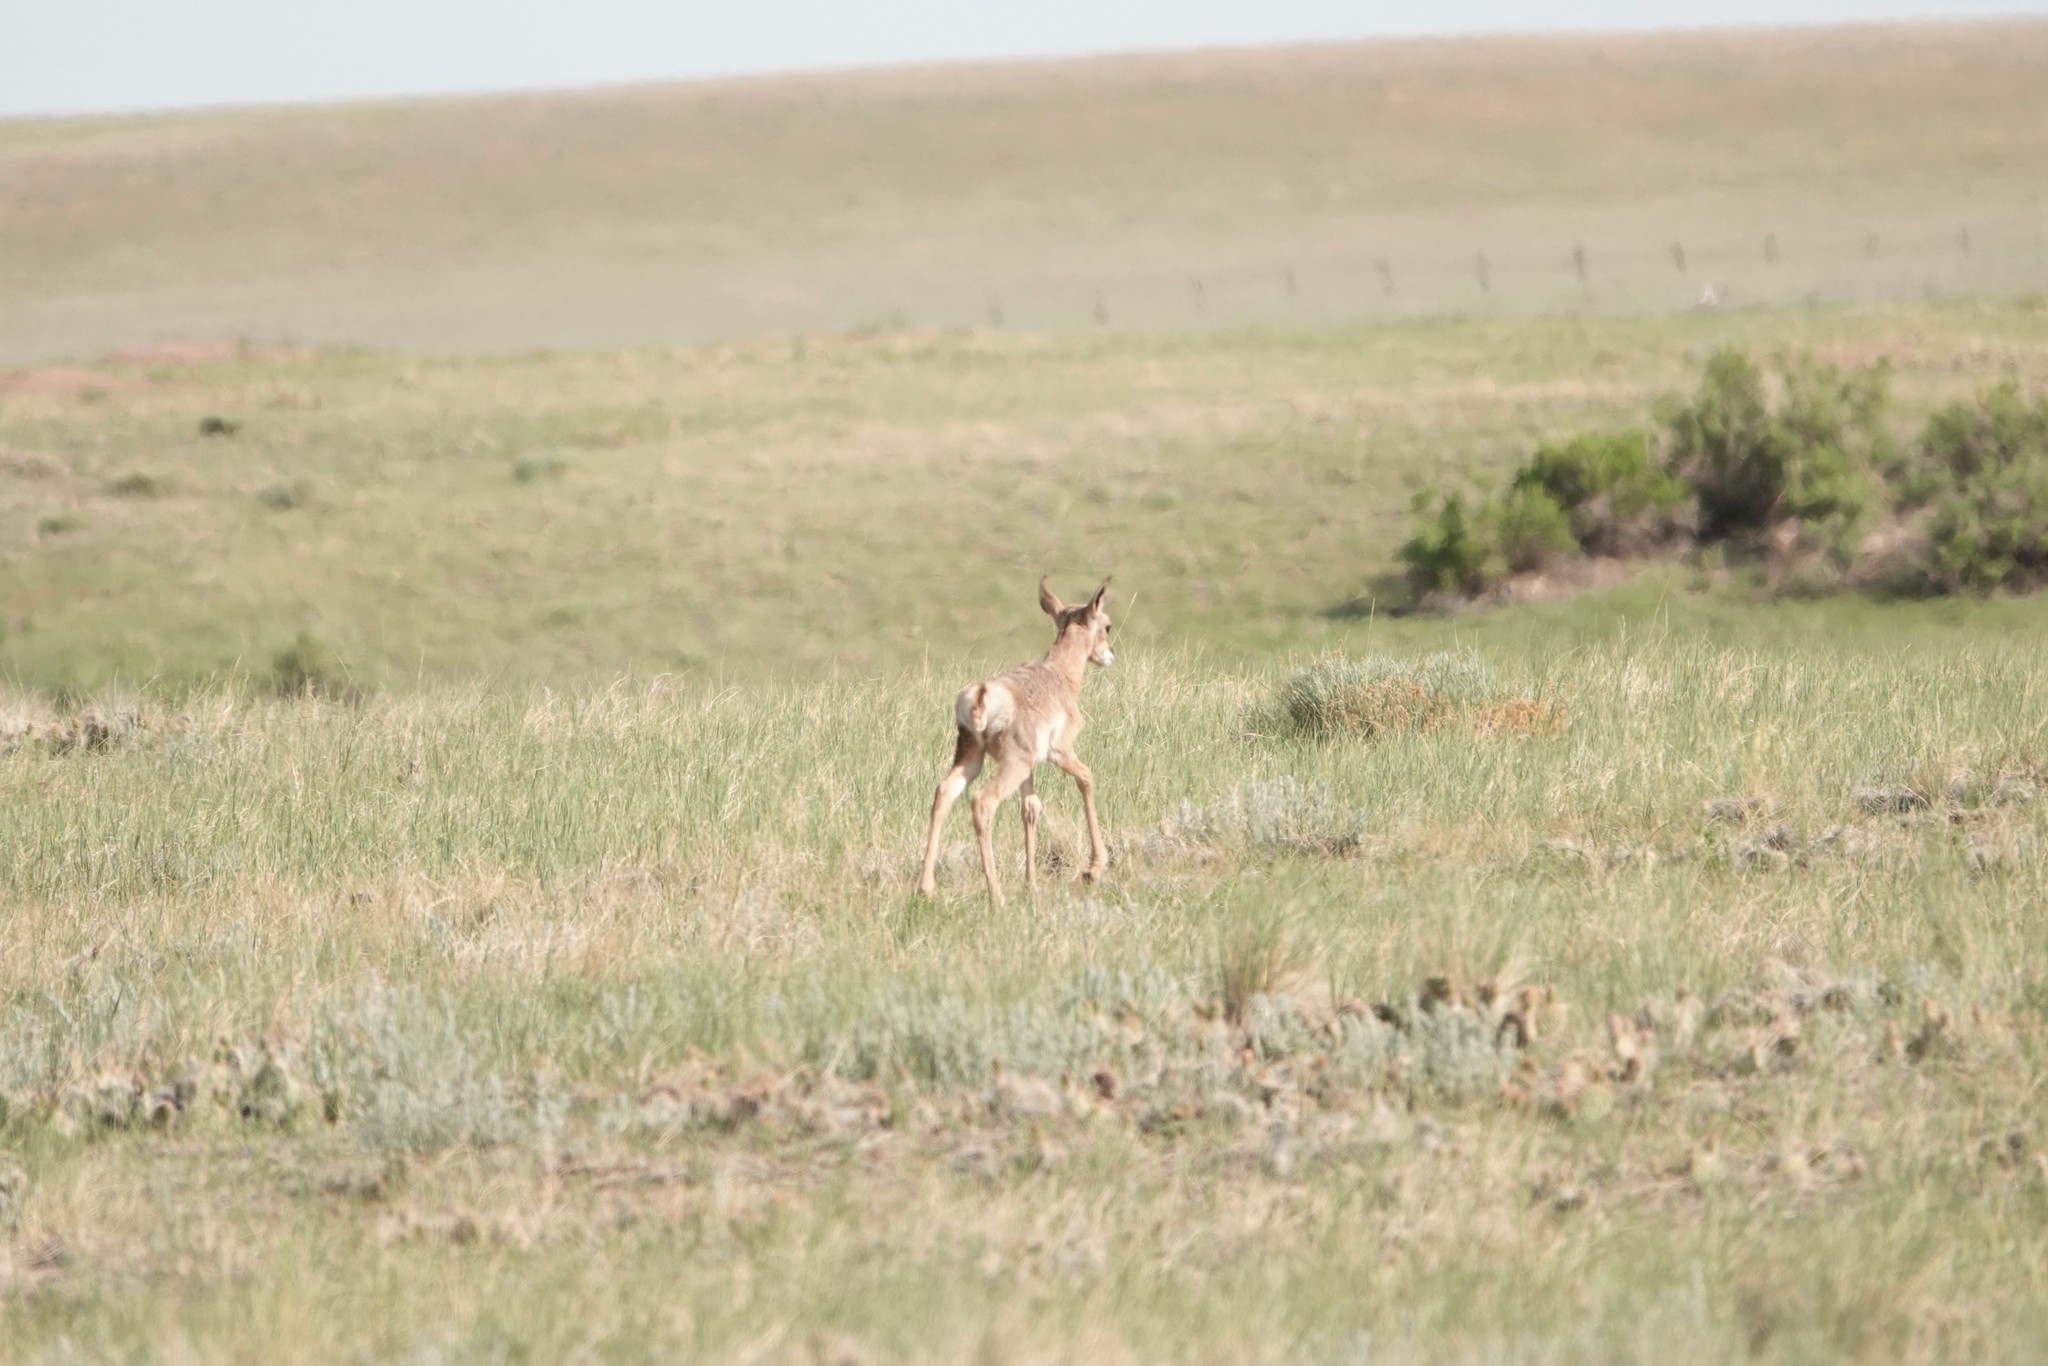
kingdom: Animalia
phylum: Chordata
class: Mammalia
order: Artiodactyla
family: Antilocapridae
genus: Antilocapra
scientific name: Antilocapra americana
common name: Pronghorn
